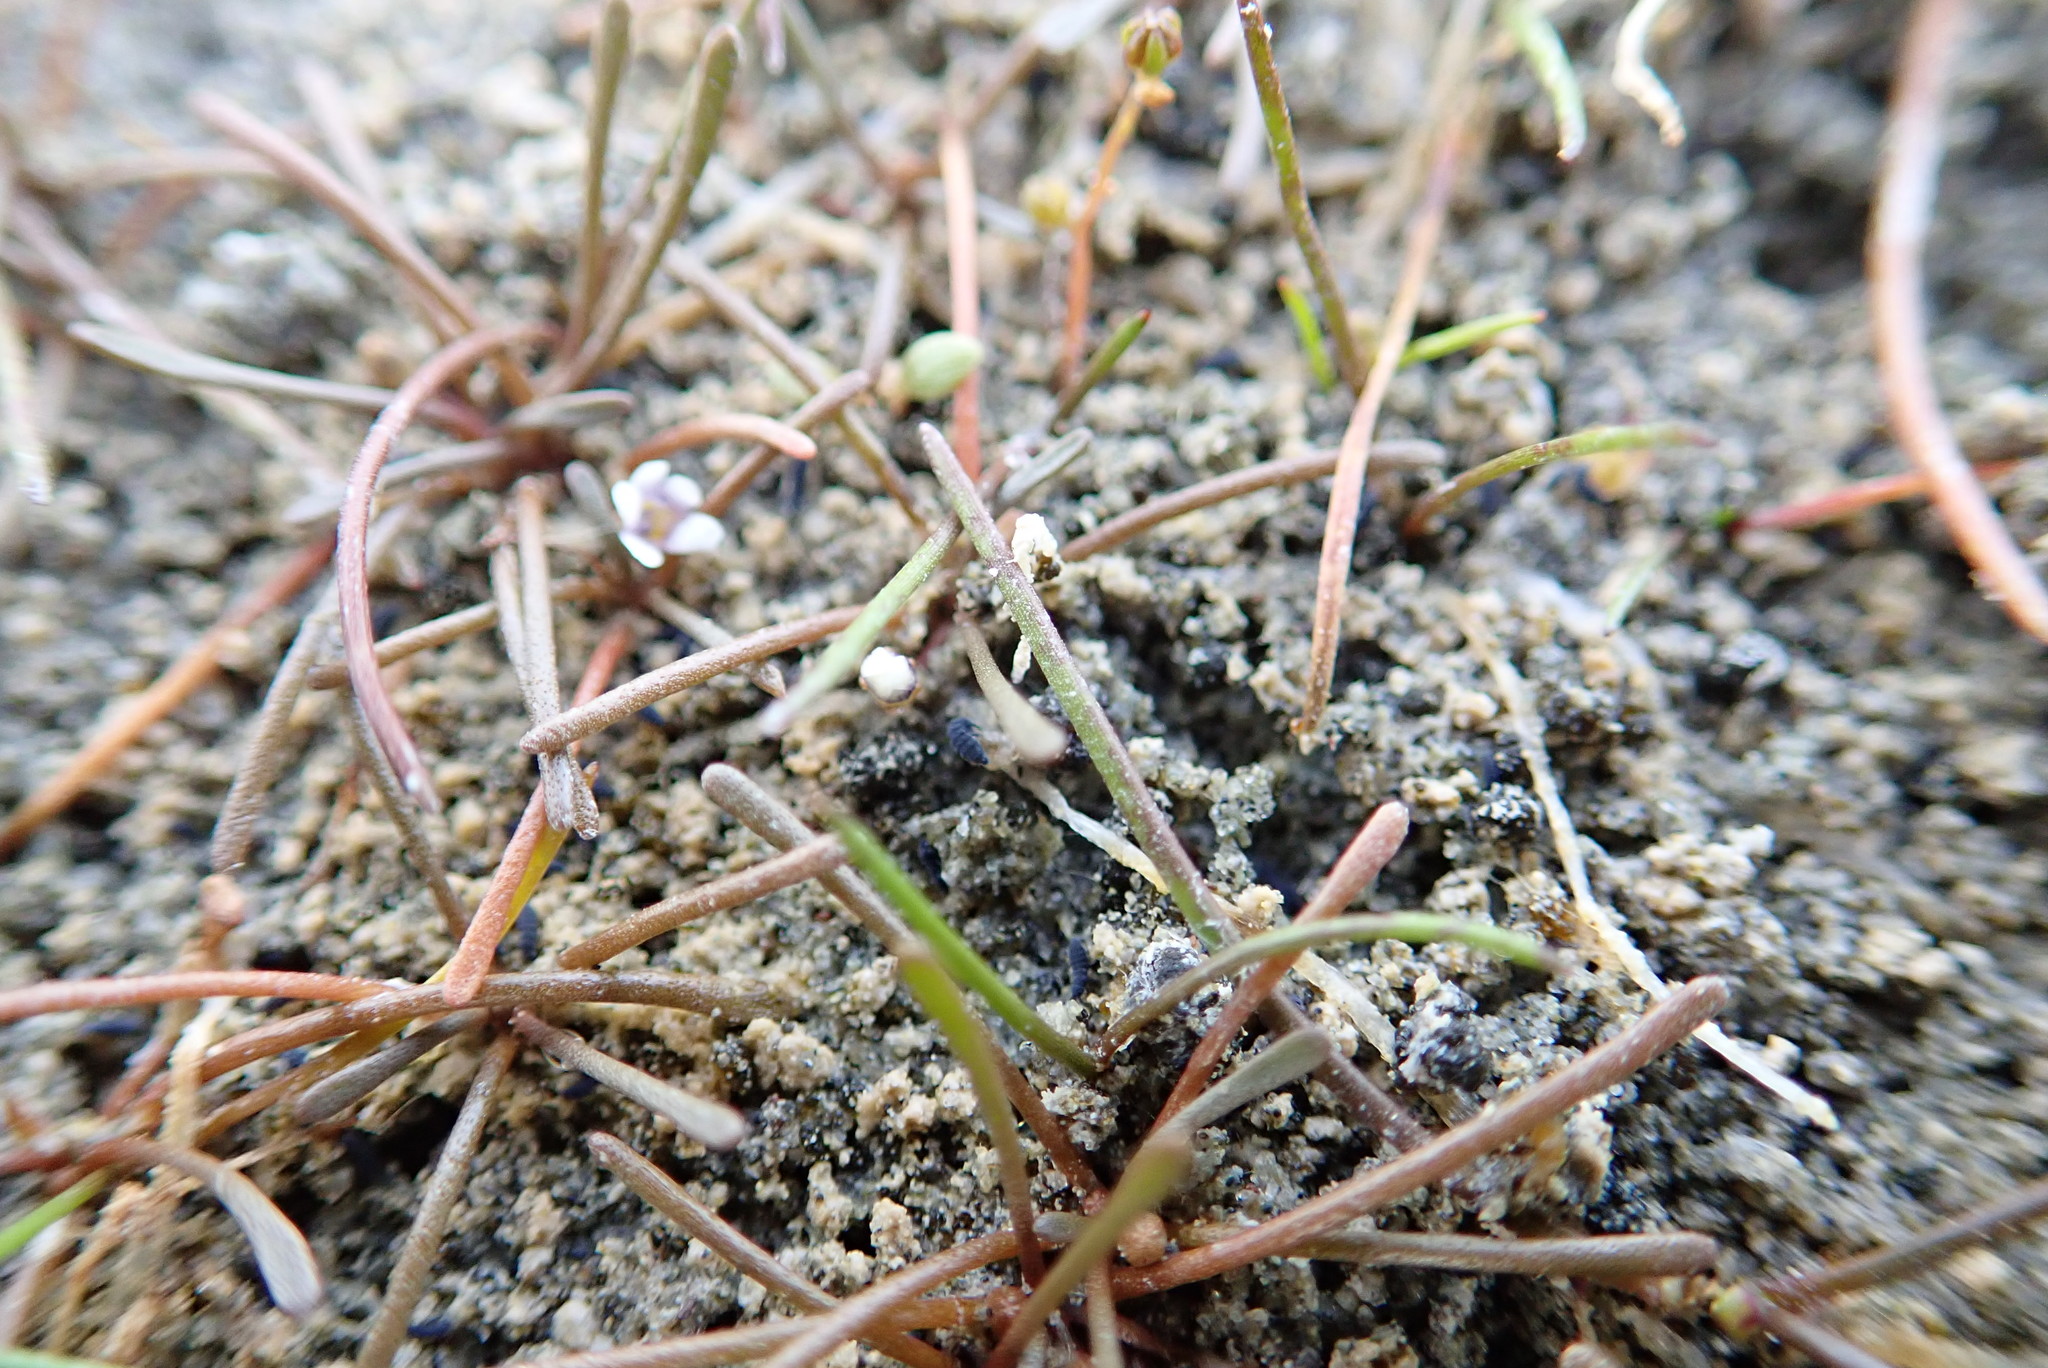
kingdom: Plantae
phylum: Tracheophyta
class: Magnoliopsida
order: Lamiales
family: Scrophulariaceae
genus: Limosella
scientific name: Limosella australis
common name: Welsh mudwort
